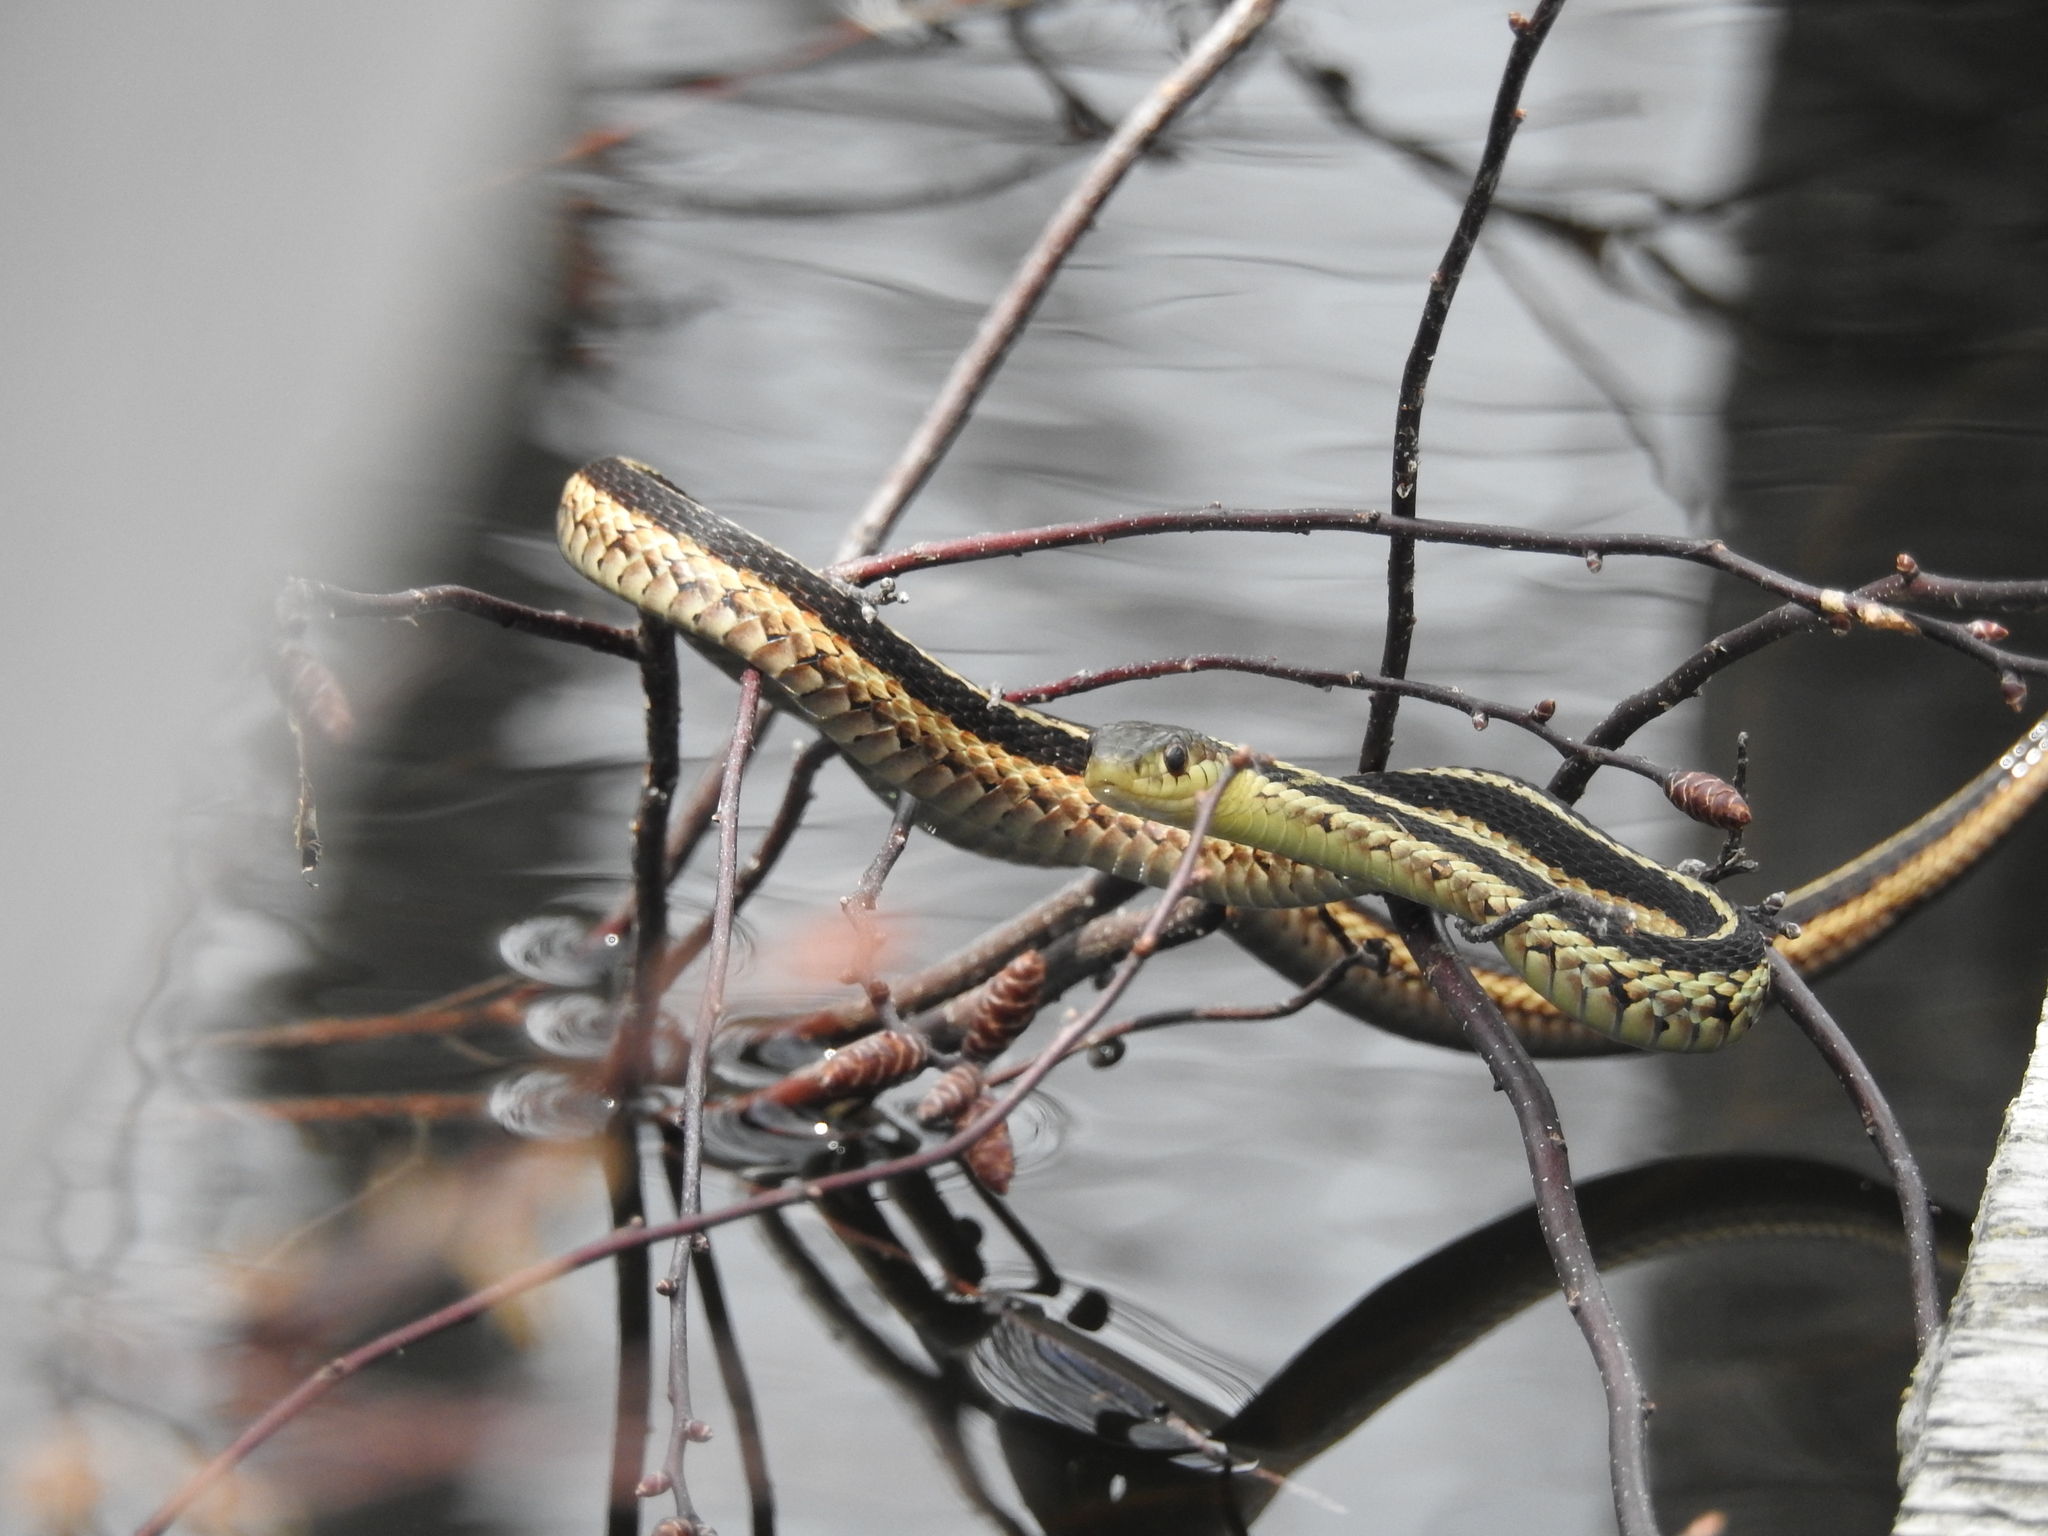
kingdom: Animalia
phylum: Chordata
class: Squamata
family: Colubridae
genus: Thamnophis
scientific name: Thamnophis sirtalis
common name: Common garter snake
